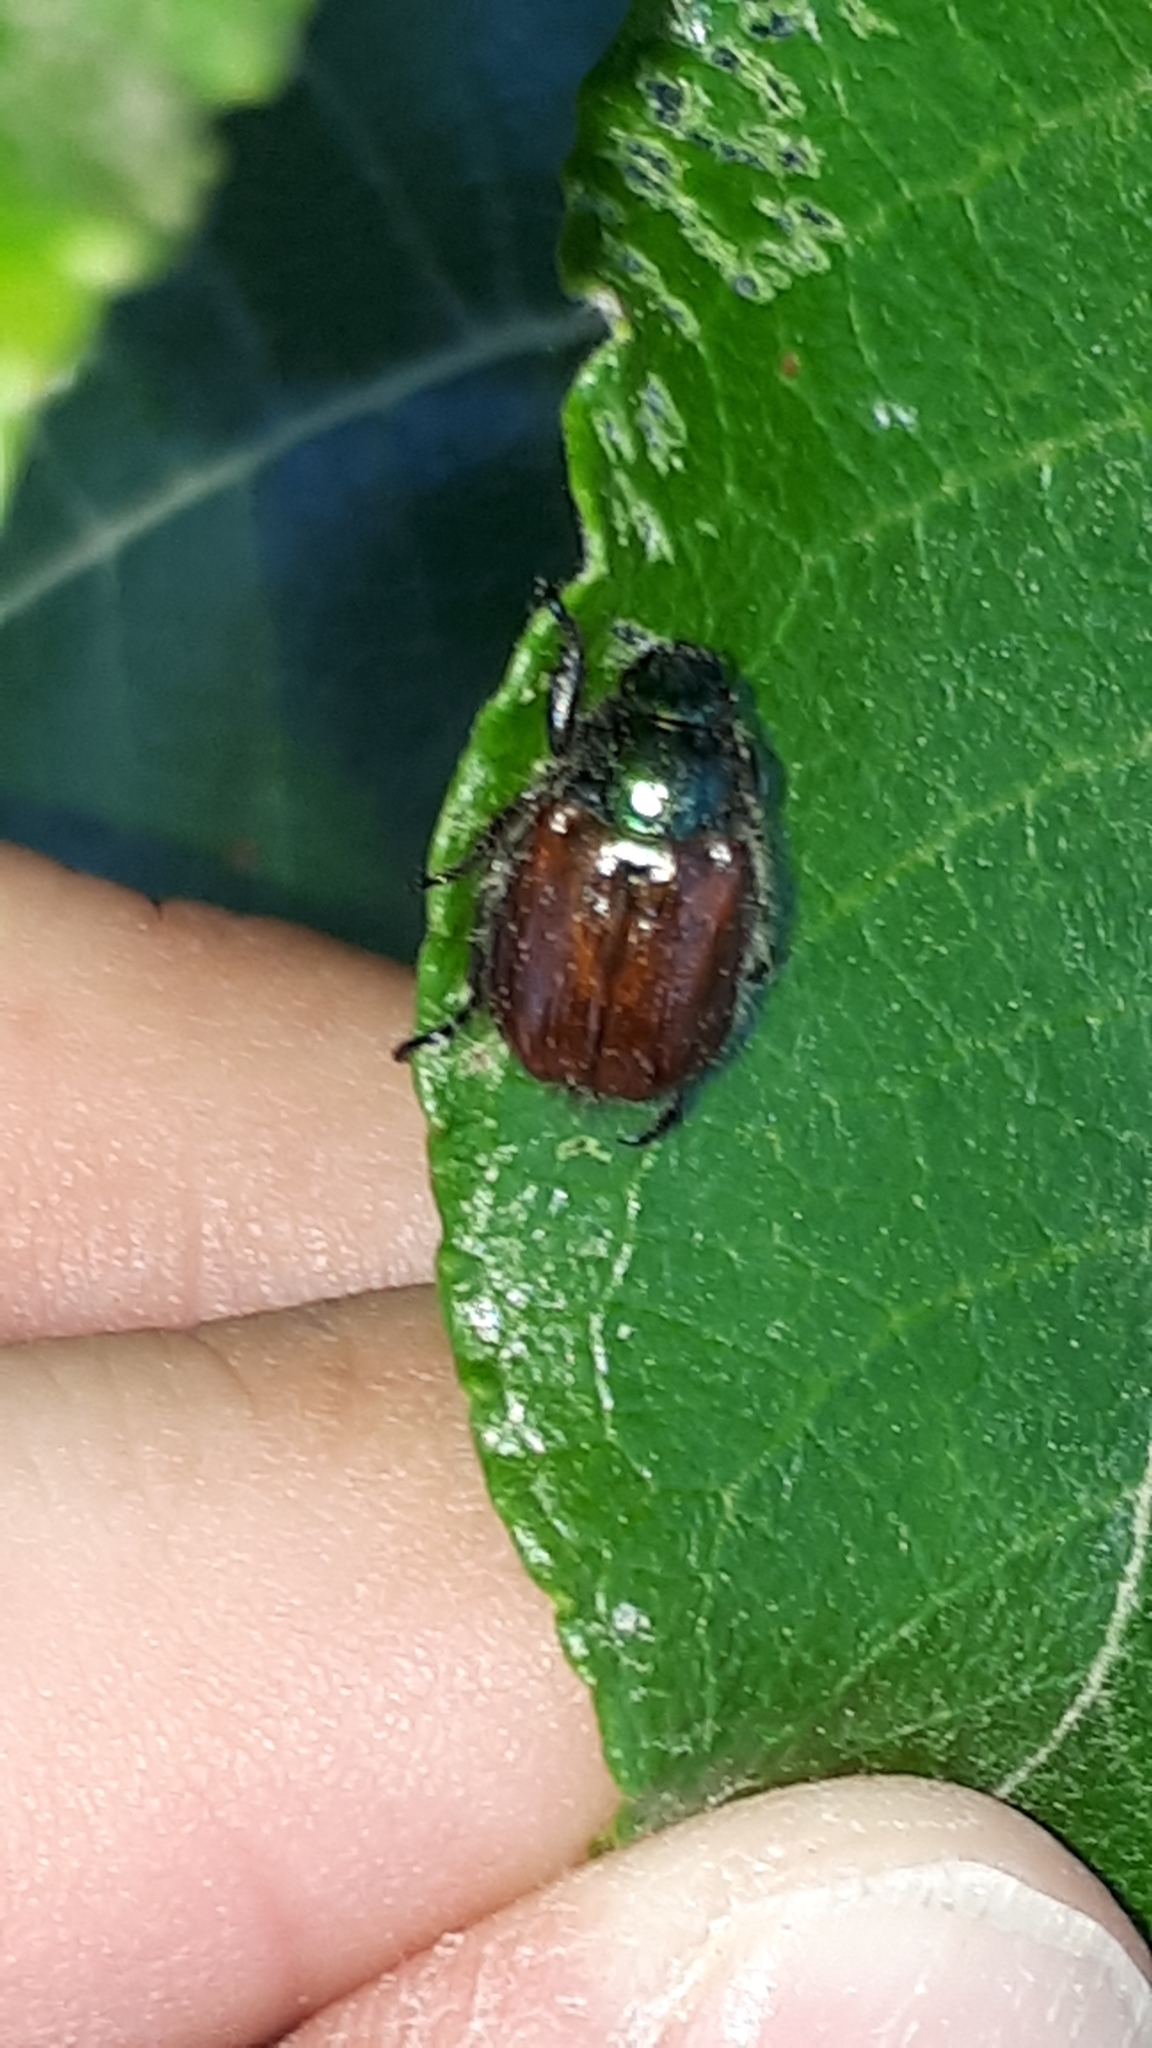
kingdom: Animalia
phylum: Arthropoda
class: Insecta
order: Coleoptera
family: Scarabaeidae
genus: Phyllopertha
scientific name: Phyllopertha horticola
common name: Garden chafer
